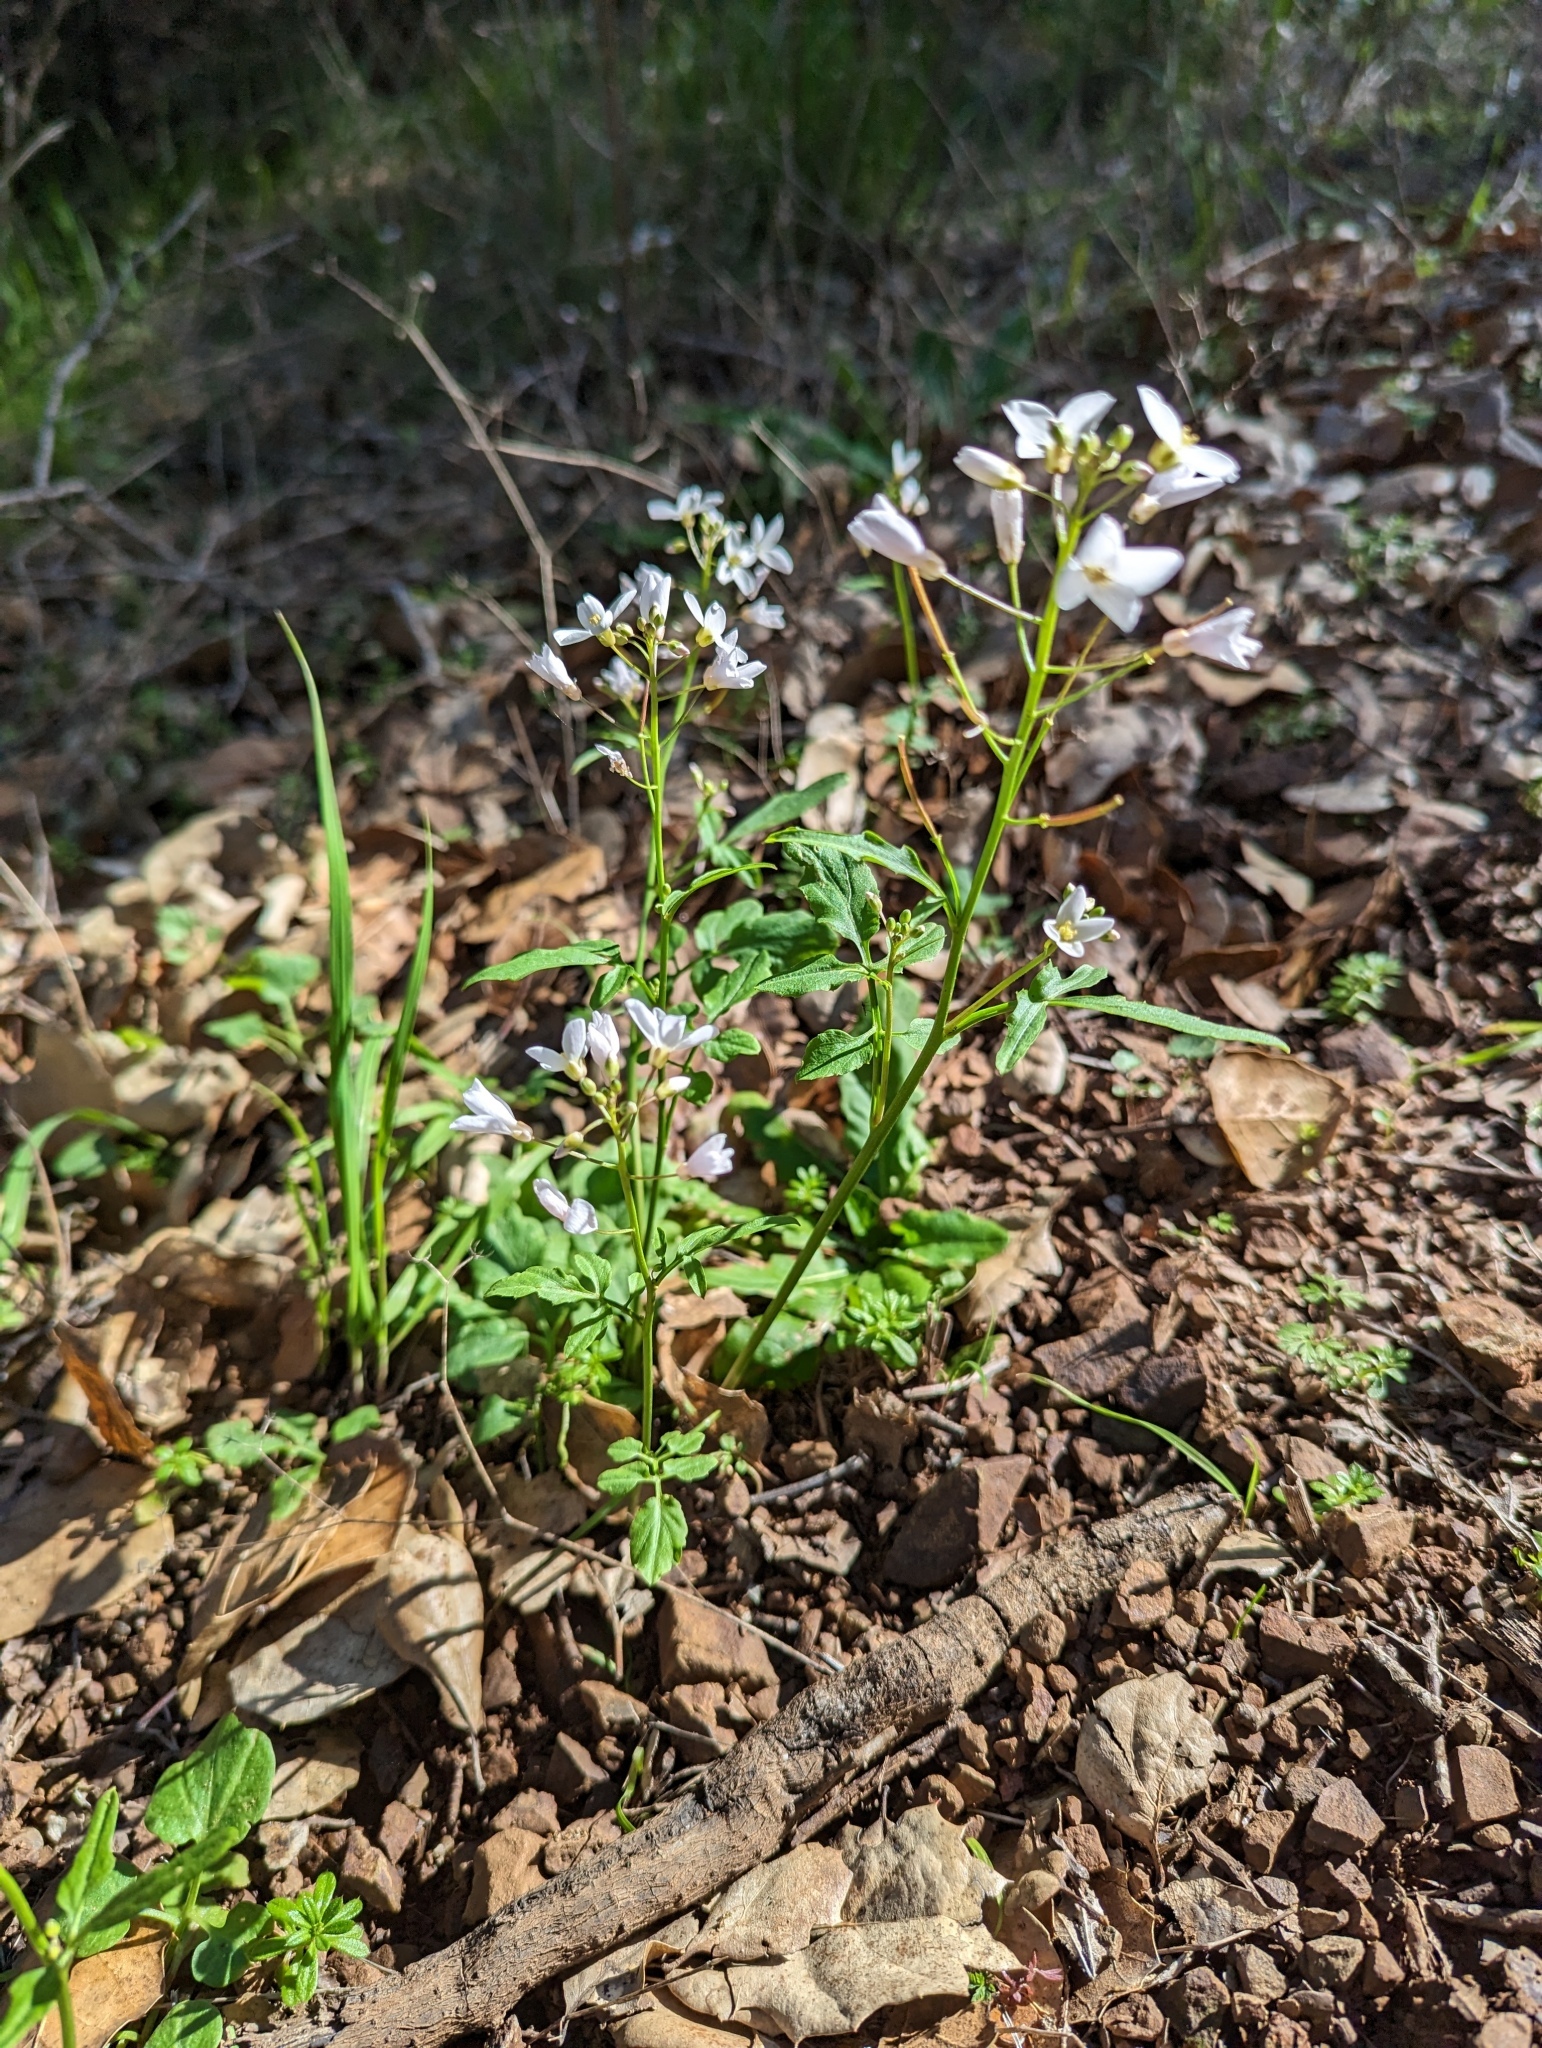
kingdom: Plantae
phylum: Tracheophyta
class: Magnoliopsida
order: Brassicales
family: Brassicaceae
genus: Cardamine
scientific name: Cardamine californica
